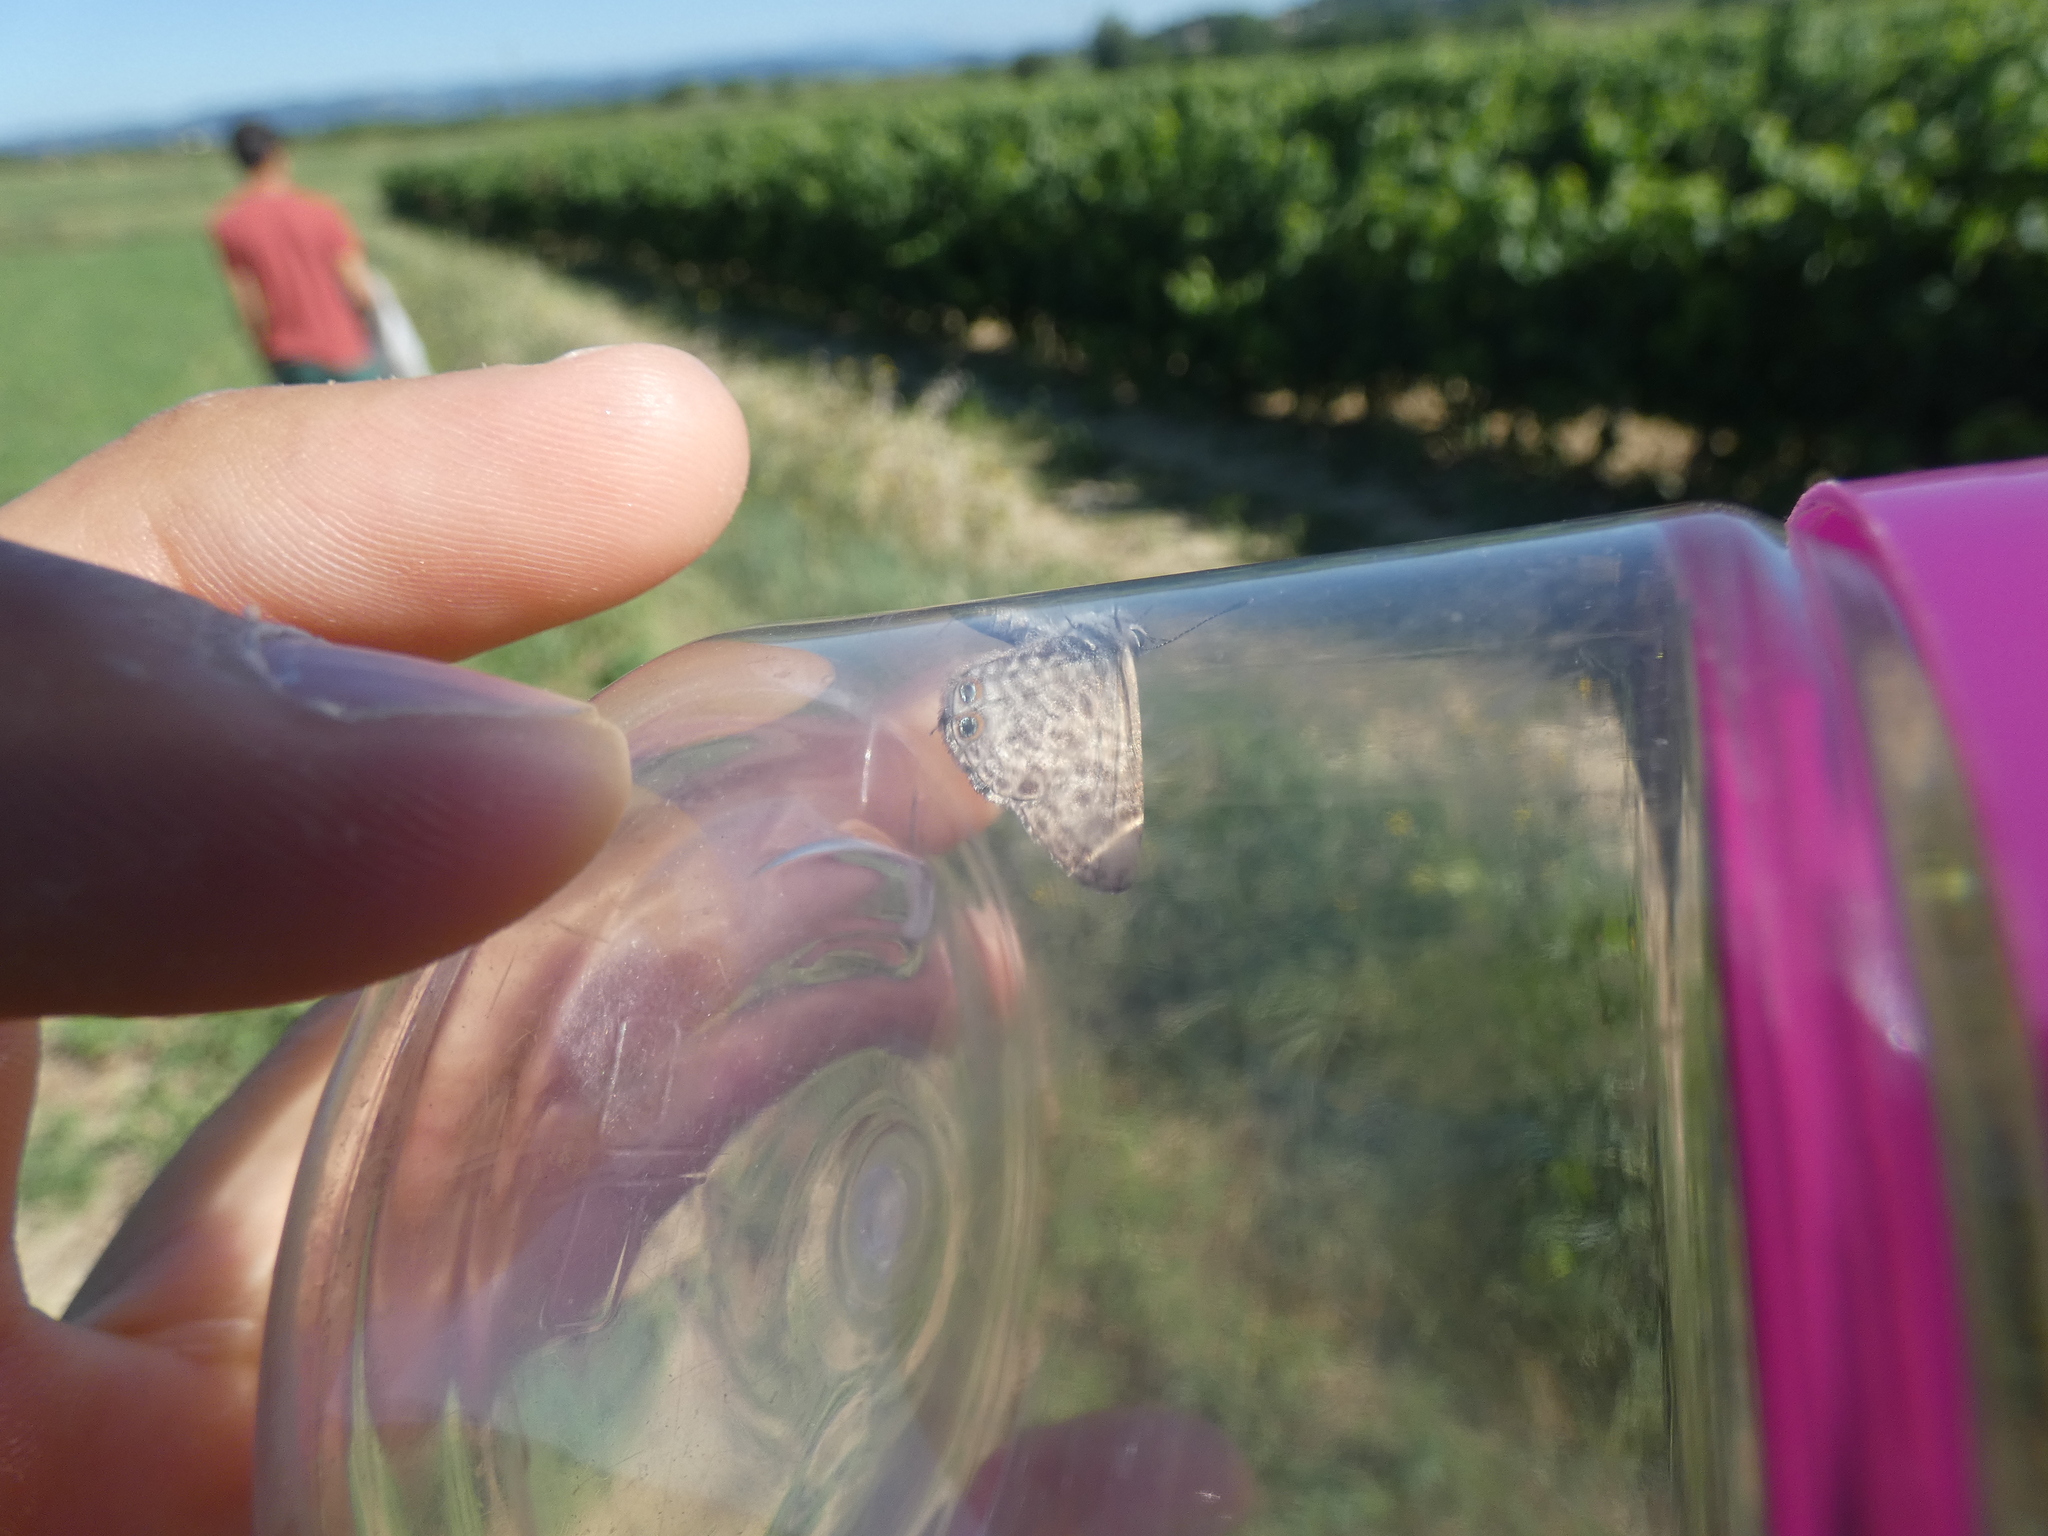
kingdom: Animalia
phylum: Arthropoda
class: Insecta
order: Lepidoptera
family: Lycaenidae
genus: Leptotes
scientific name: Leptotes pirithous
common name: Lang's short-tailed blue
